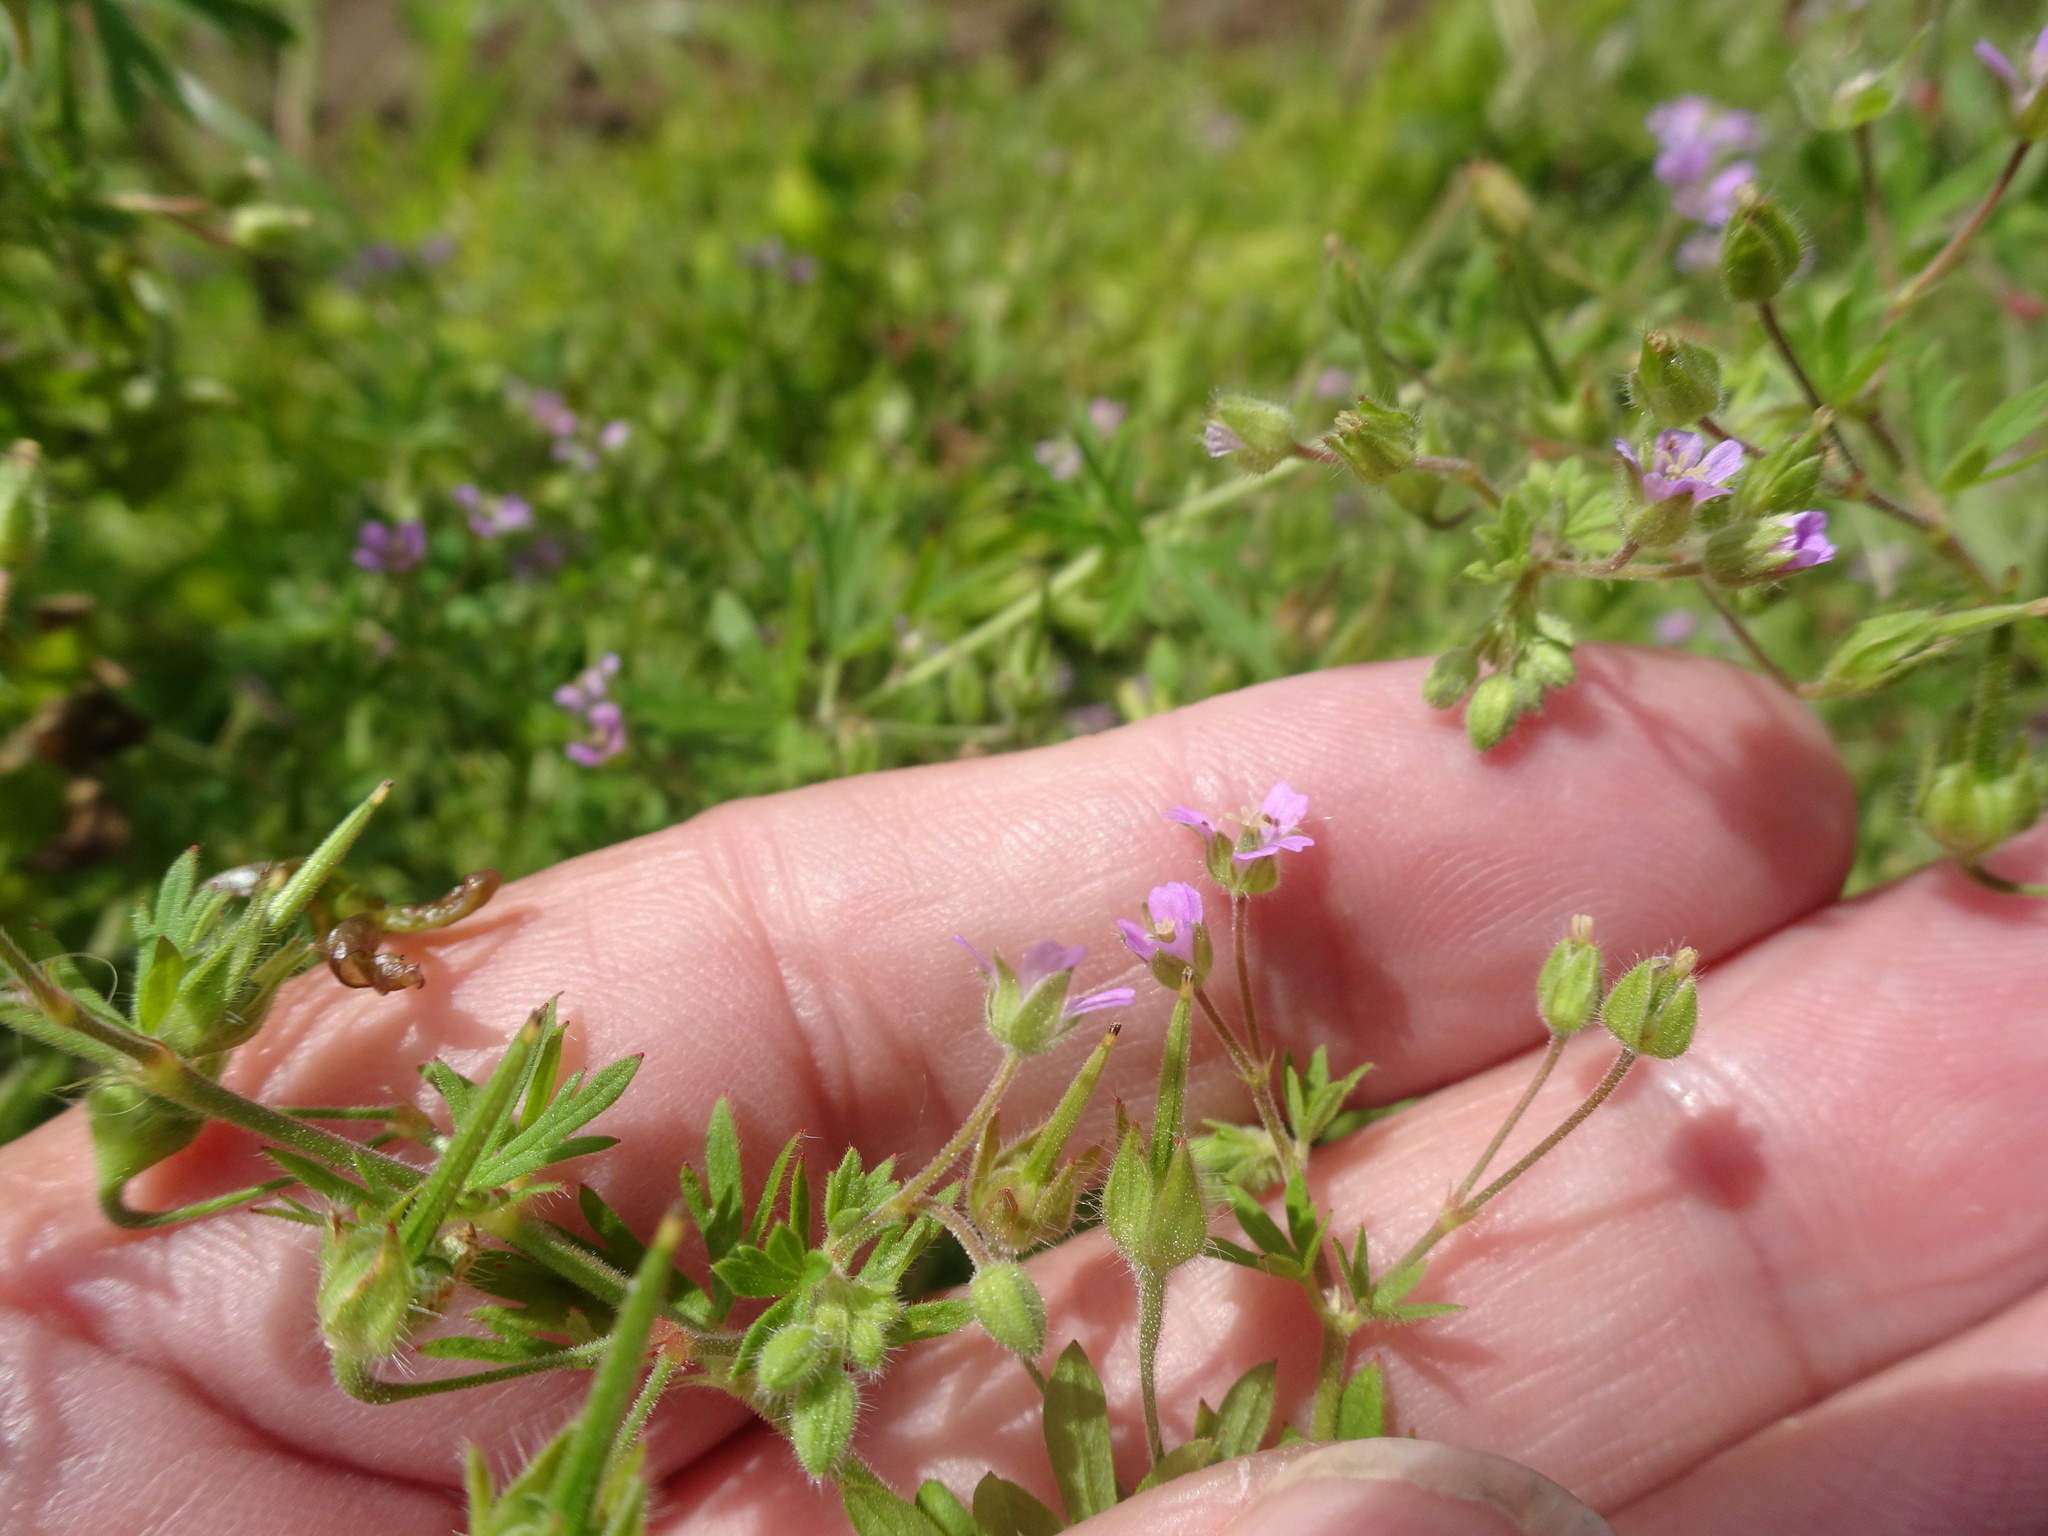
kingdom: Plantae
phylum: Tracheophyta
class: Magnoliopsida
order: Geraniales
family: Geraniaceae
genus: Geranium
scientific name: Geranium pusillum
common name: Small geranium
